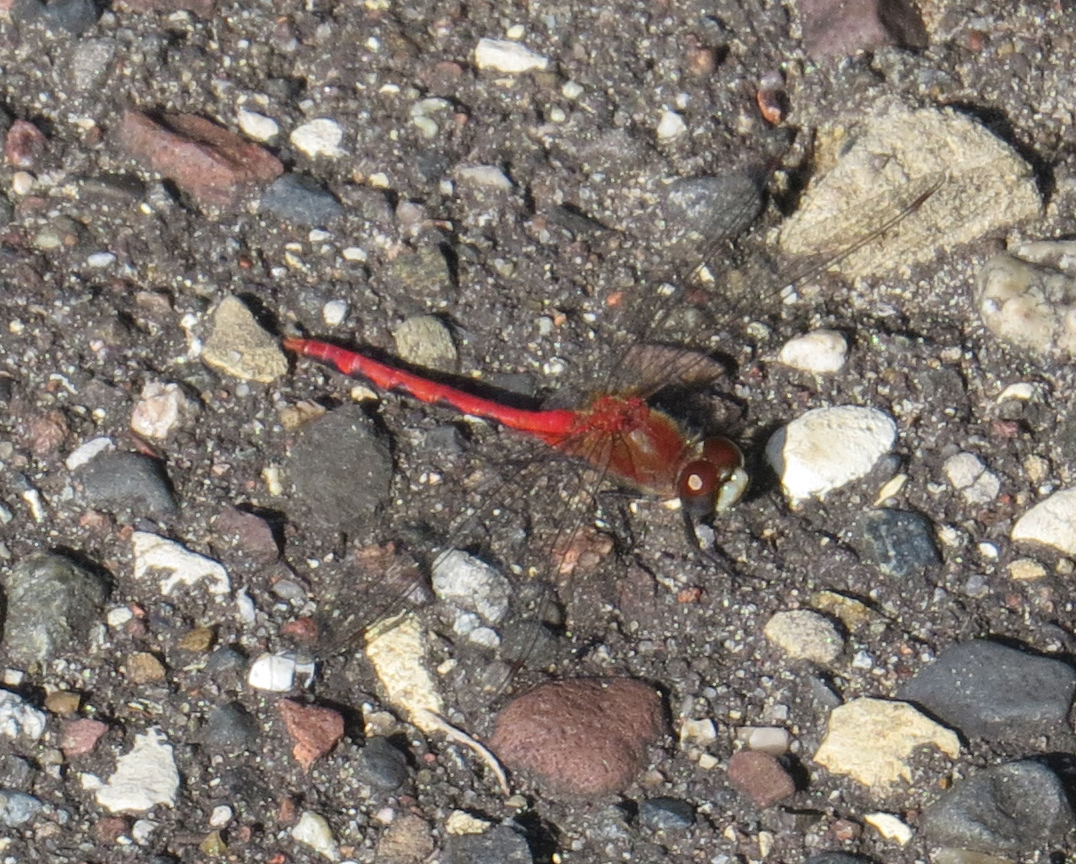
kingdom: Animalia
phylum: Arthropoda
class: Insecta
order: Odonata
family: Libellulidae
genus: Sympetrum
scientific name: Sympetrum obtrusum
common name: White-faced meadowhawk
